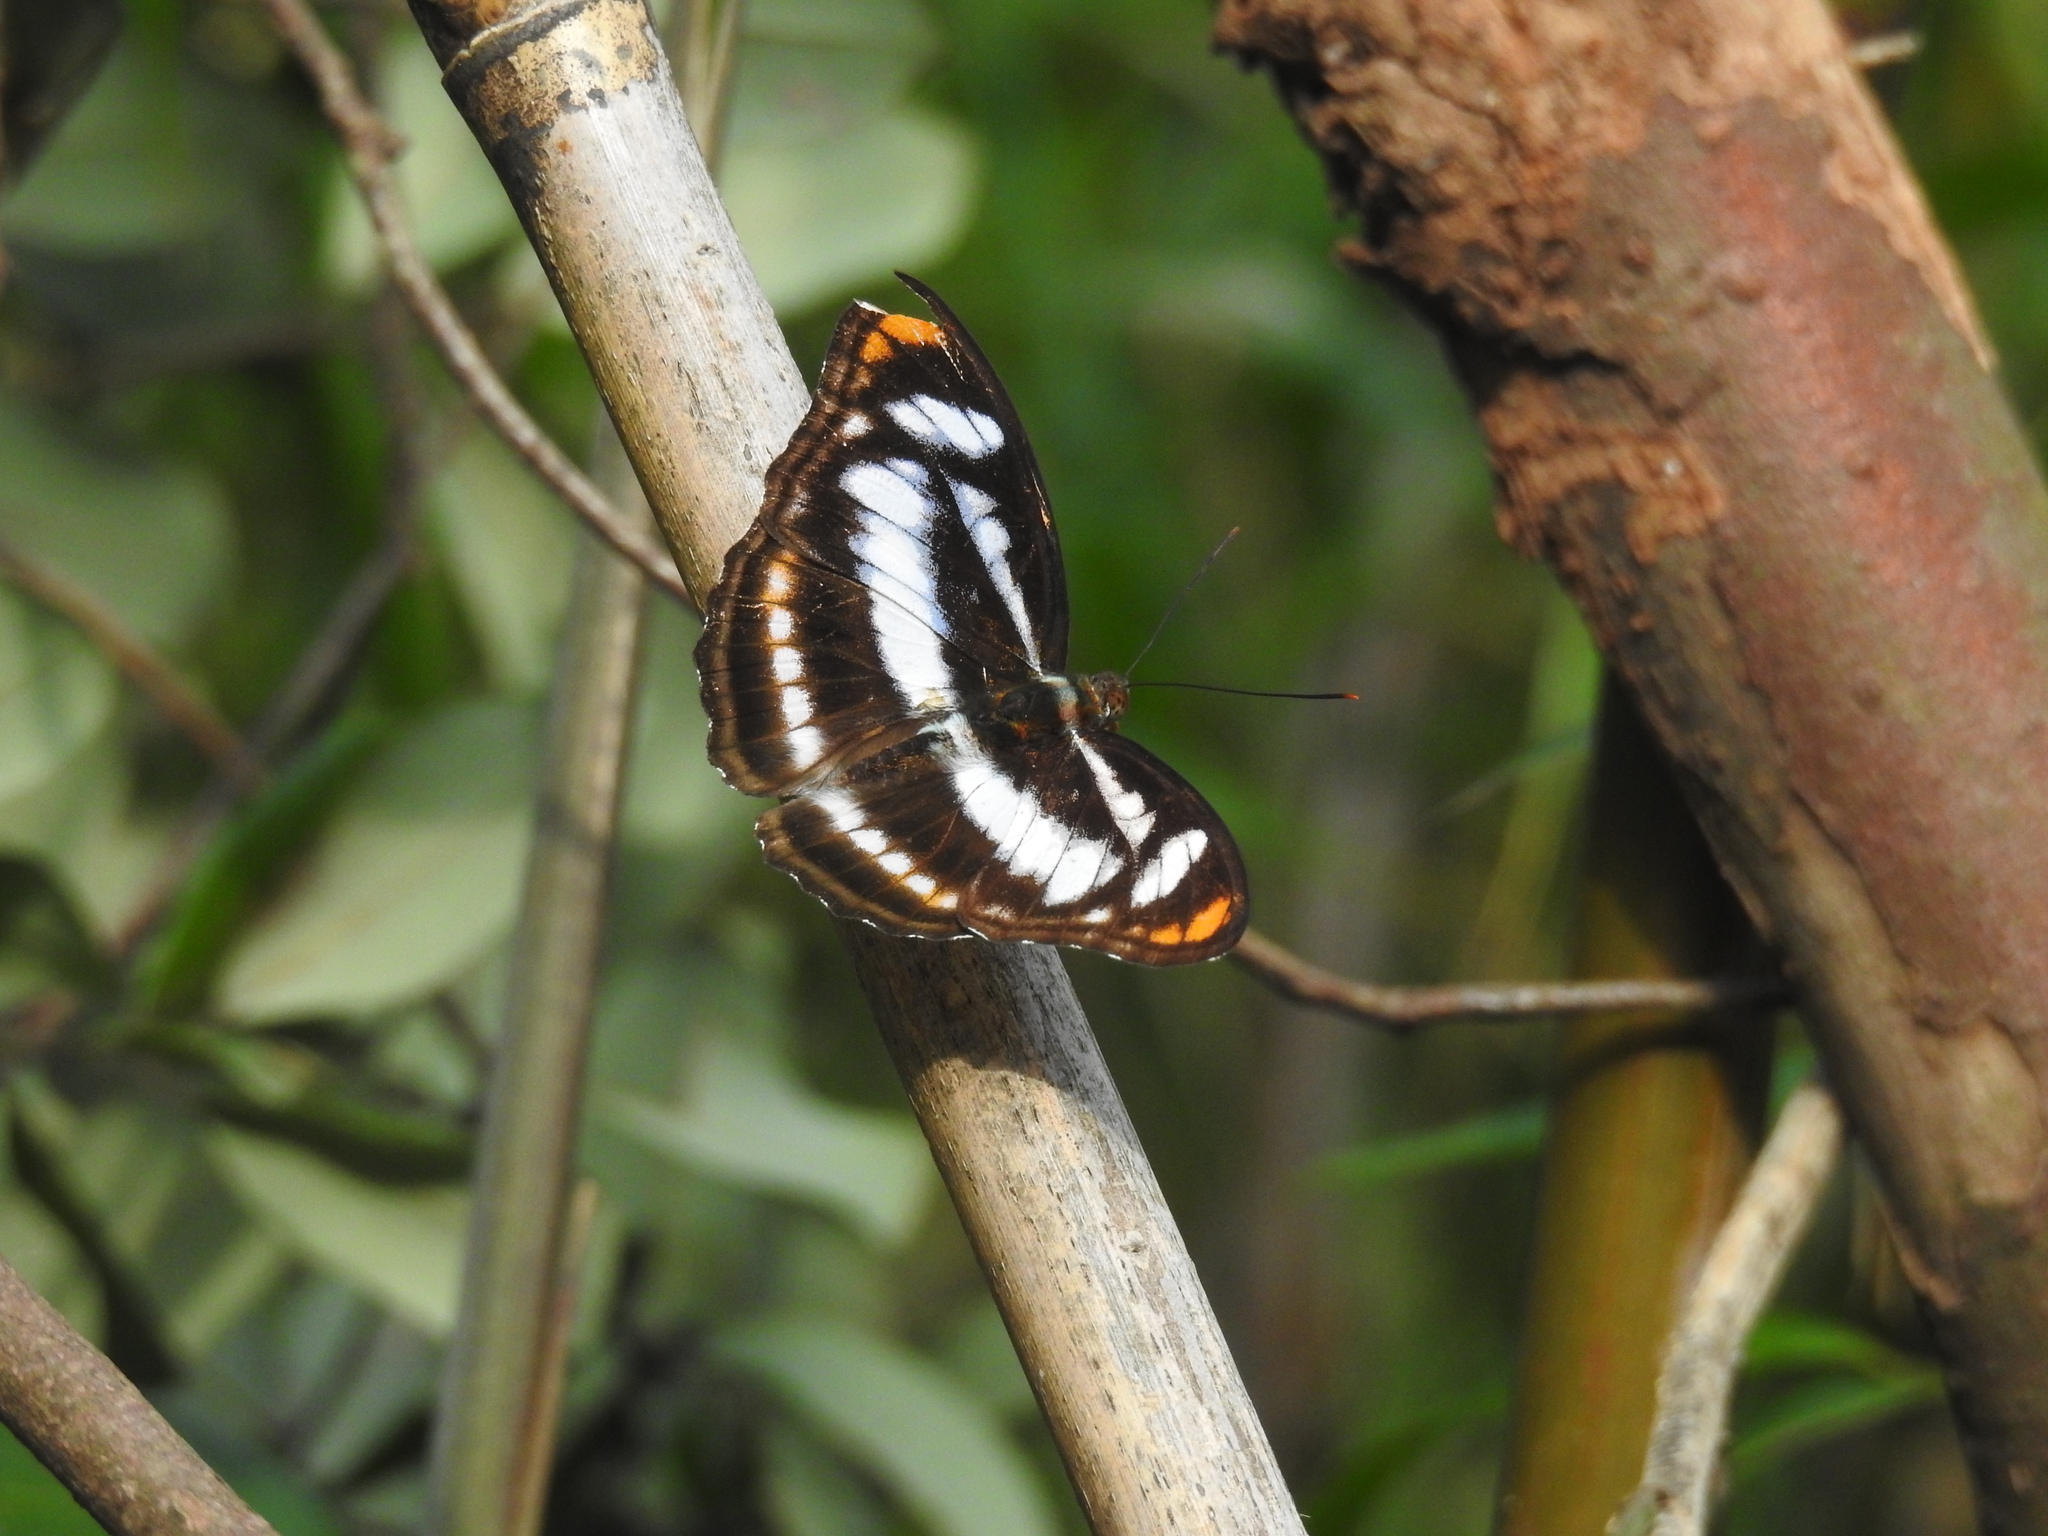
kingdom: Animalia
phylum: Arthropoda
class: Insecta
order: Lepidoptera
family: Nymphalidae
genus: Parathyma
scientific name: Parathyma nefte
